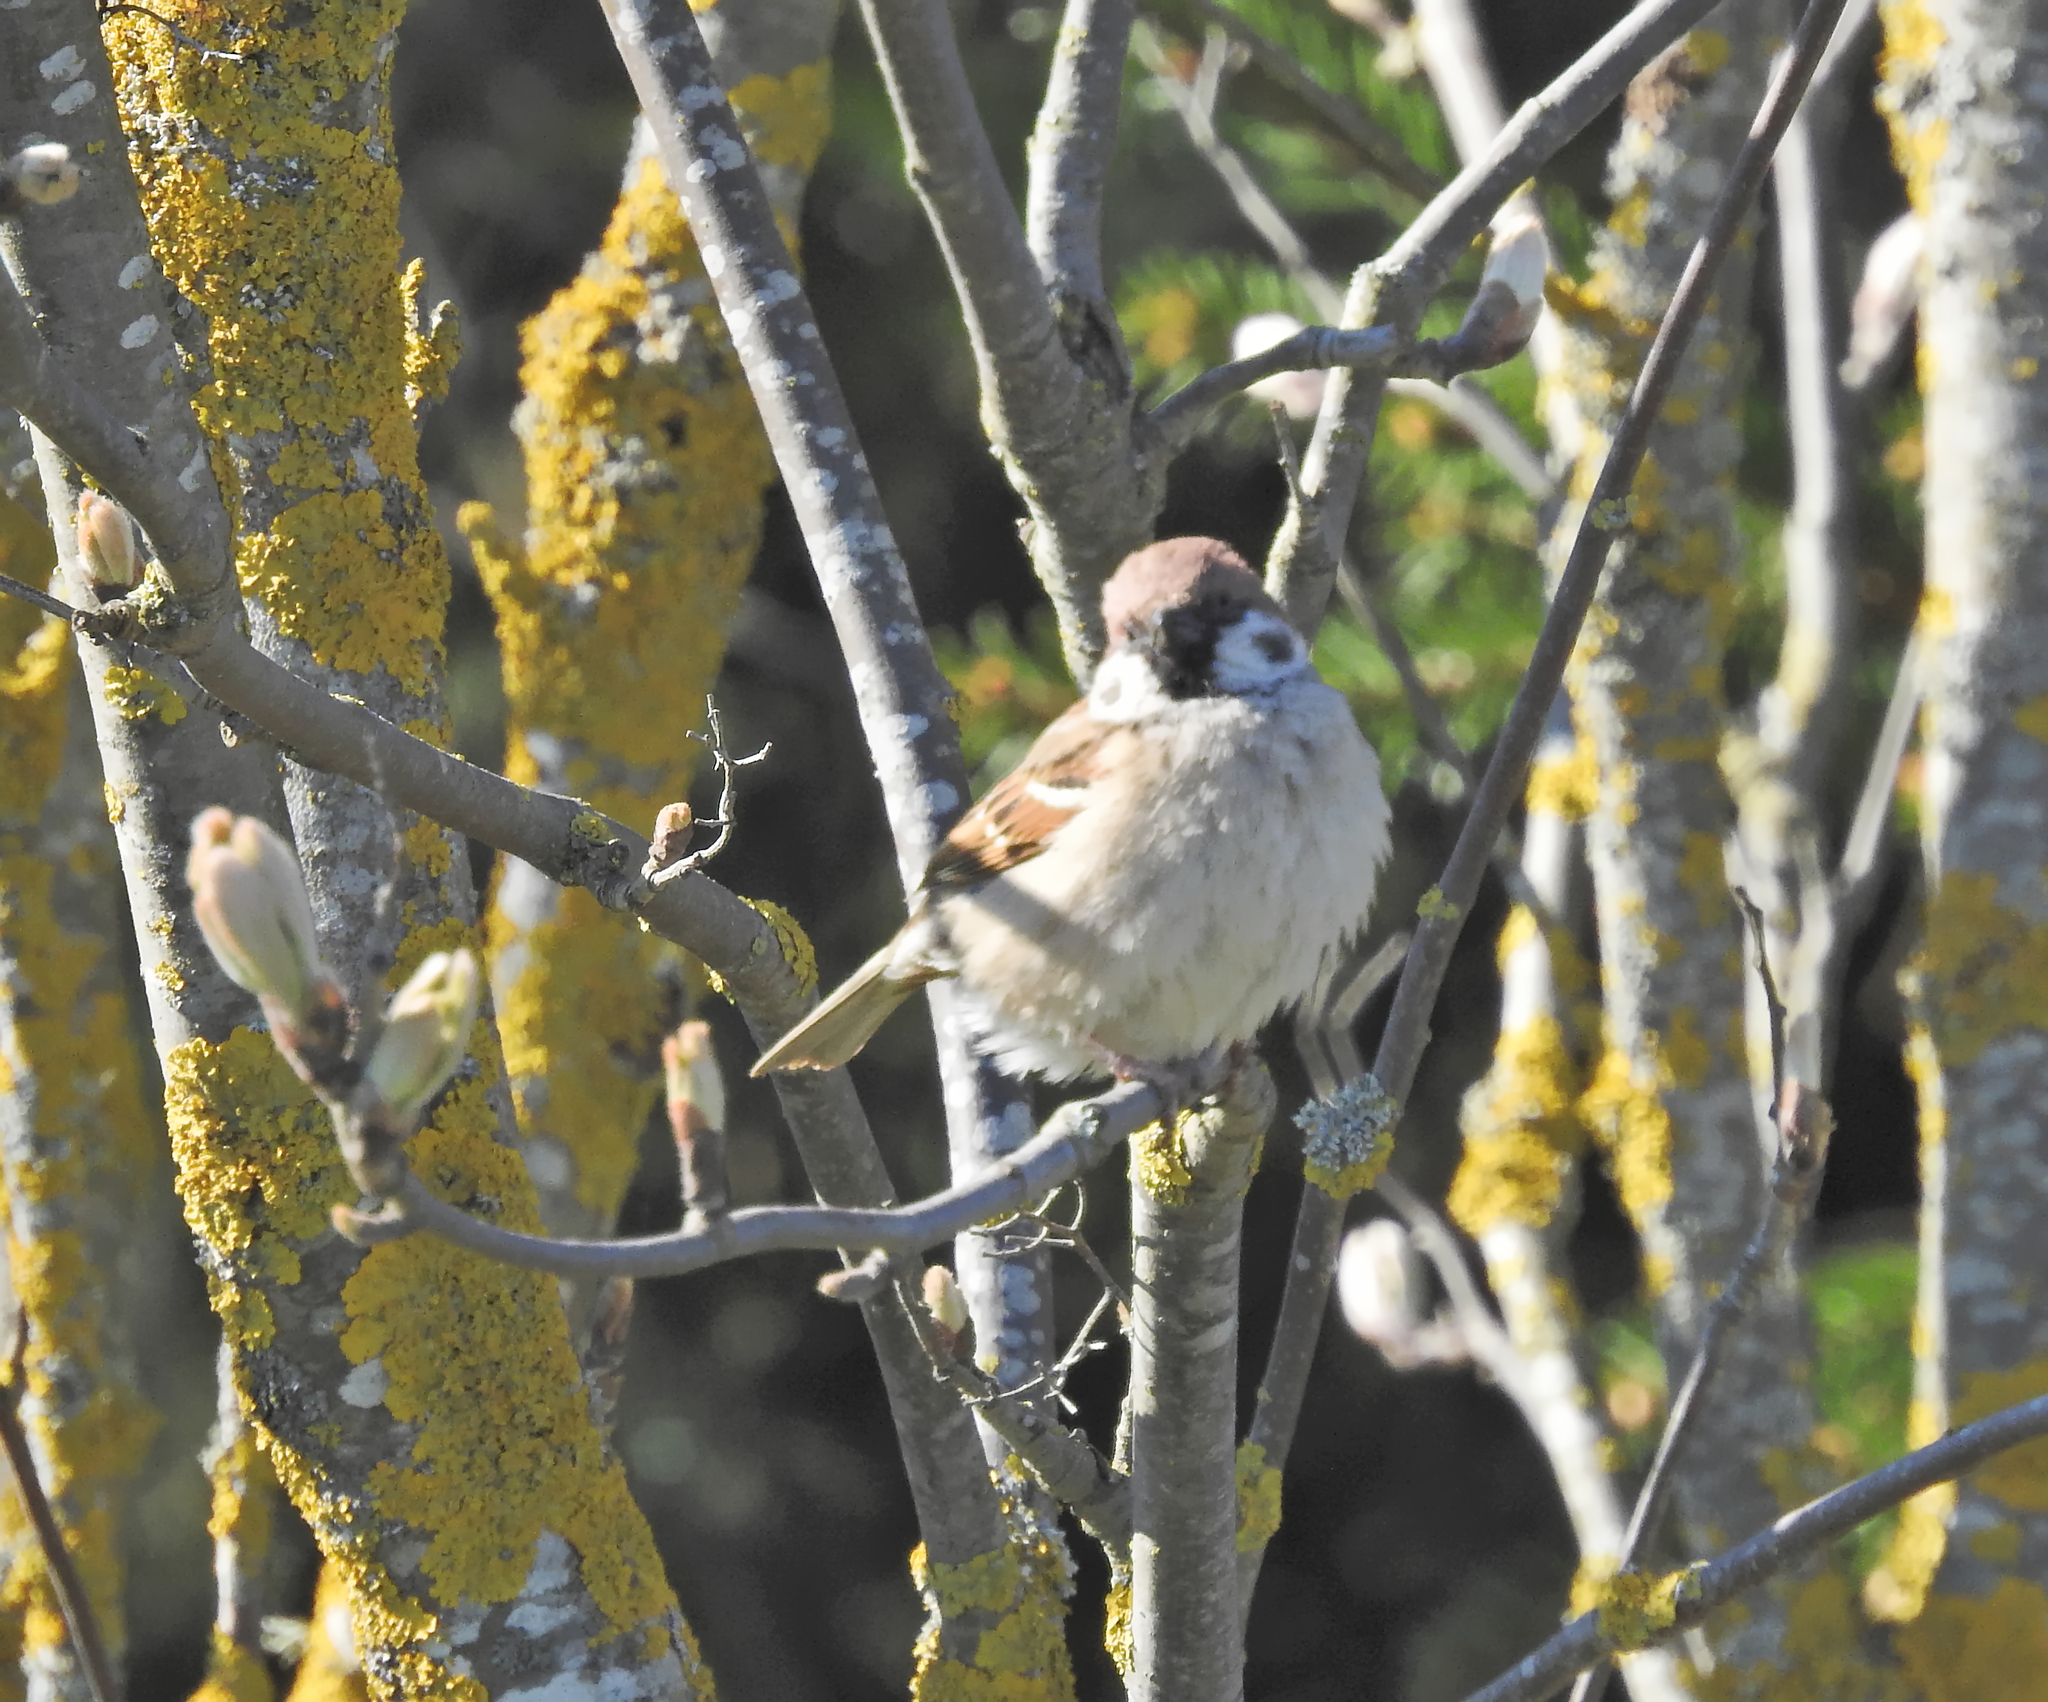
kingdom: Animalia
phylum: Chordata
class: Aves
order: Passeriformes
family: Passeridae
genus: Passer
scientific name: Passer montanus
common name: Eurasian tree sparrow
